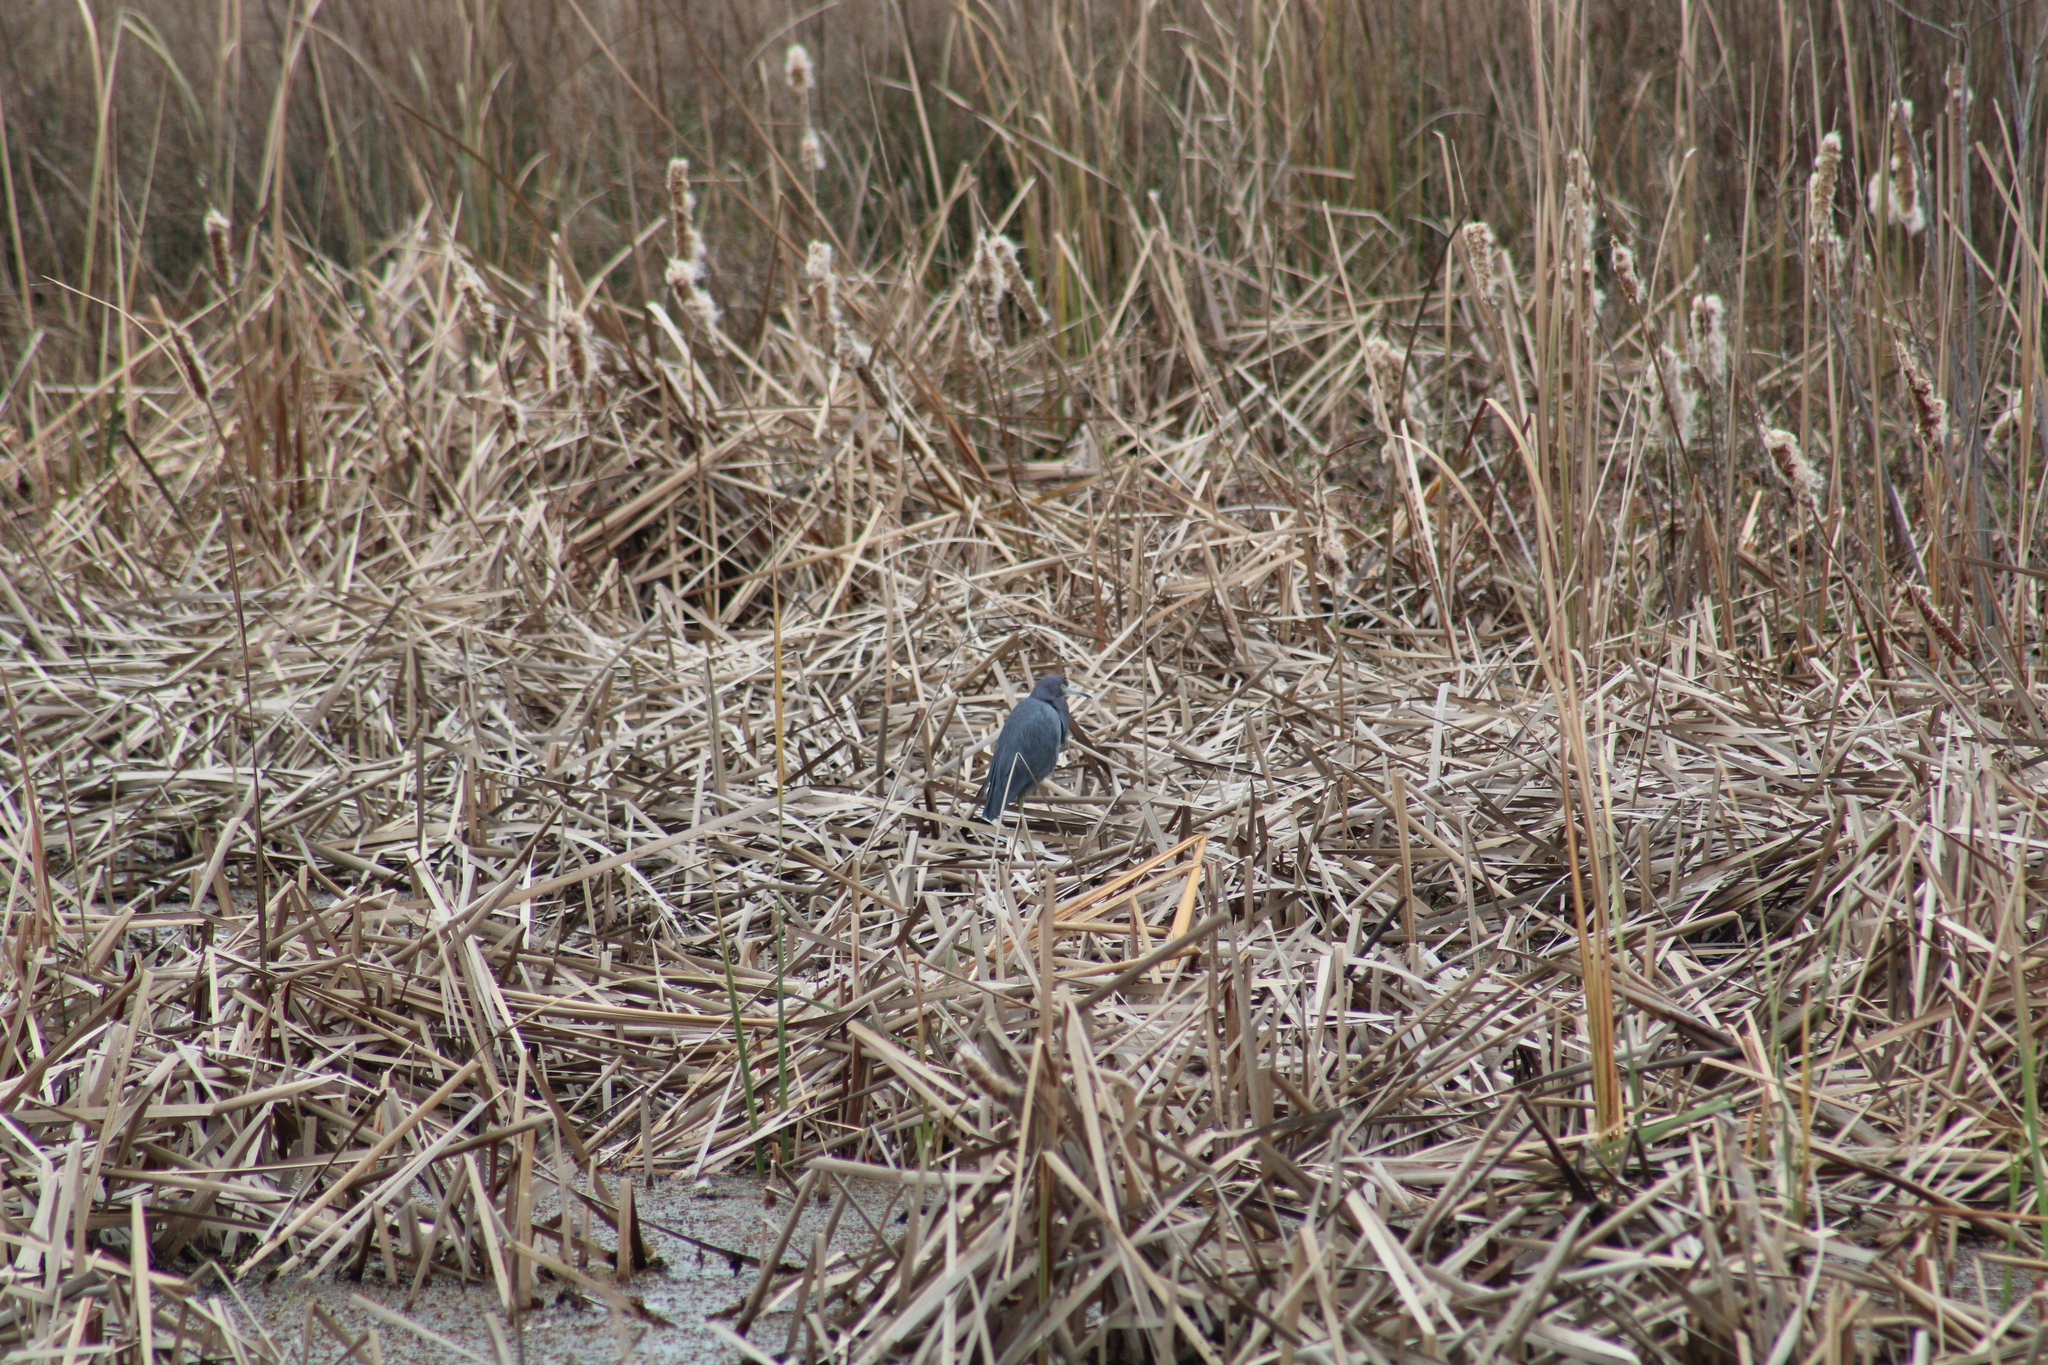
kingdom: Animalia
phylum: Chordata
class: Aves
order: Pelecaniformes
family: Ardeidae
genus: Egretta
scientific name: Egretta caerulea
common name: Little blue heron
